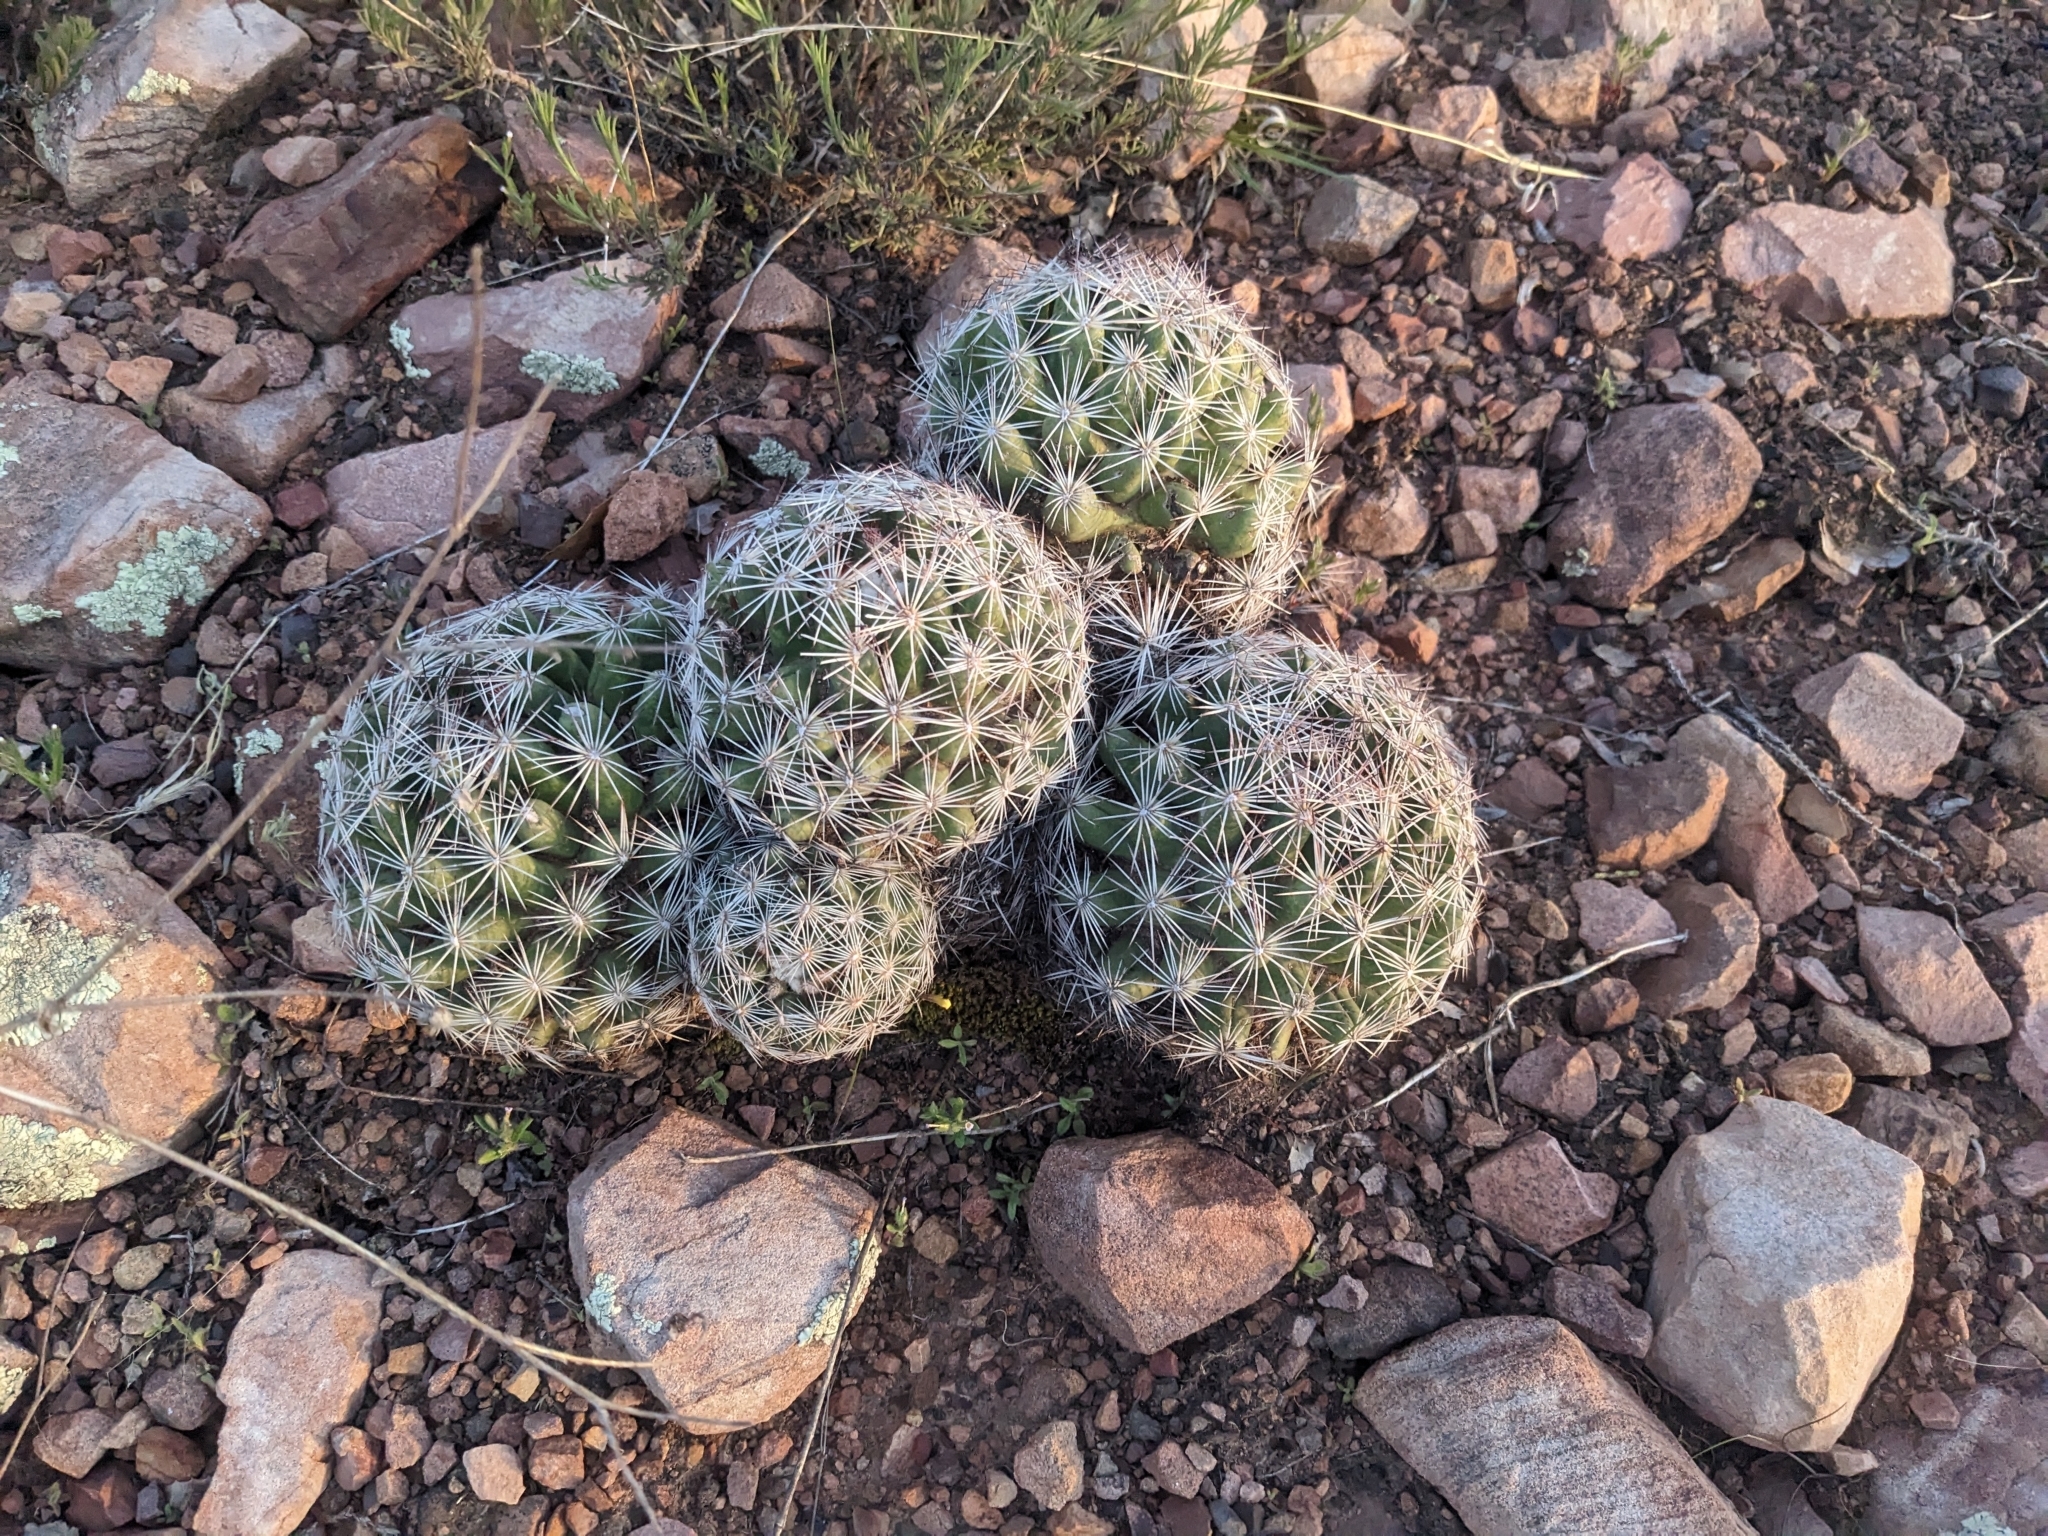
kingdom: Plantae
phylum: Tracheophyta
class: Magnoliopsida
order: Caryophyllales
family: Cactaceae
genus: Pelecyphora
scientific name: Pelecyphora vivipara
